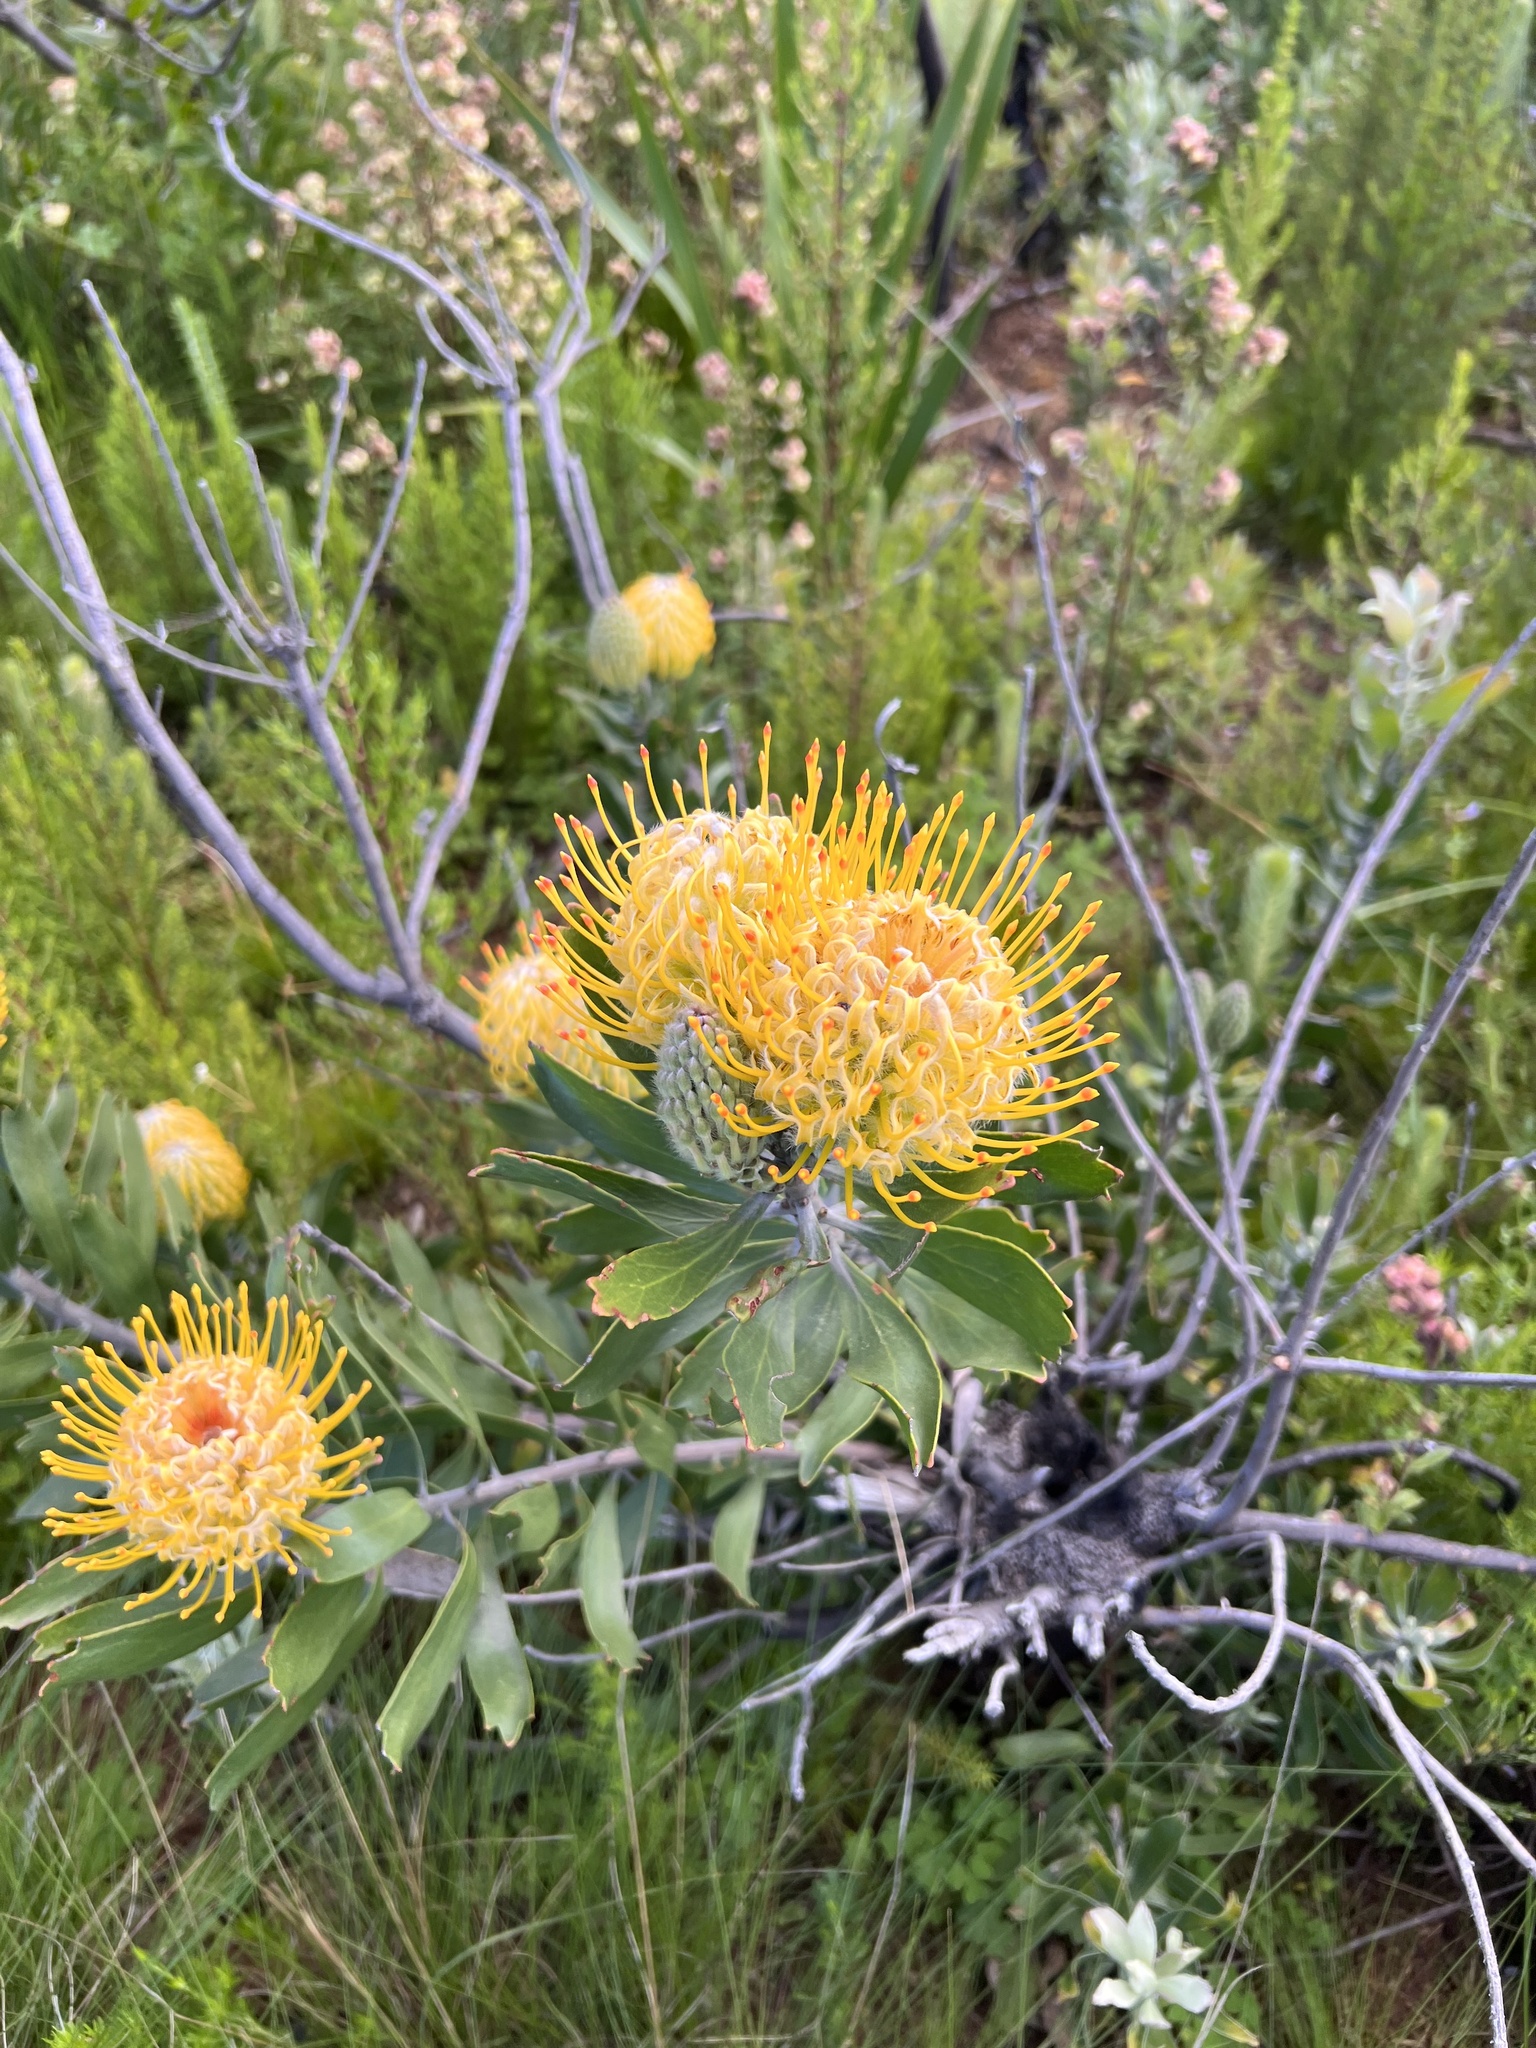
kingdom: Plantae
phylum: Tracheophyta
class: Magnoliopsida
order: Proteales
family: Proteaceae
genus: Leucospermum
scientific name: Leucospermum cuneiforme
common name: Common pincushion
